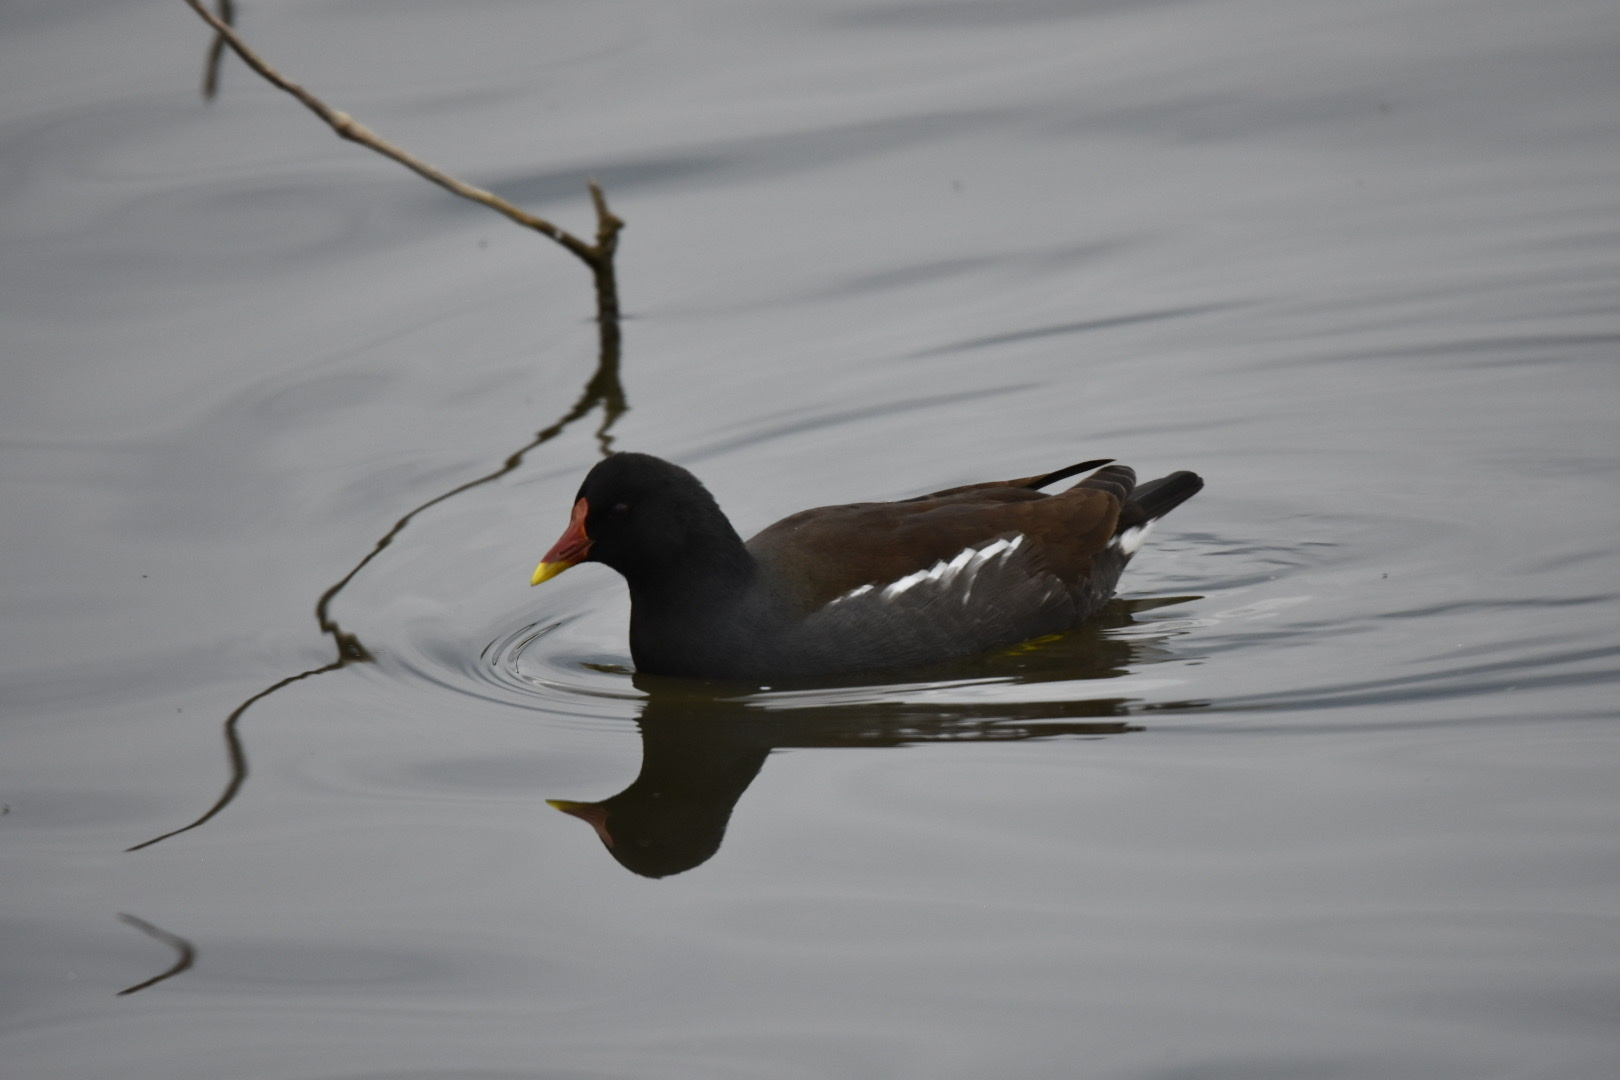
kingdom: Animalia
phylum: Chordata
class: Aves
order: Gruiformes
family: Rallidae
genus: Gallinula
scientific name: Gallinula chloropus
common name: Common moorhen
